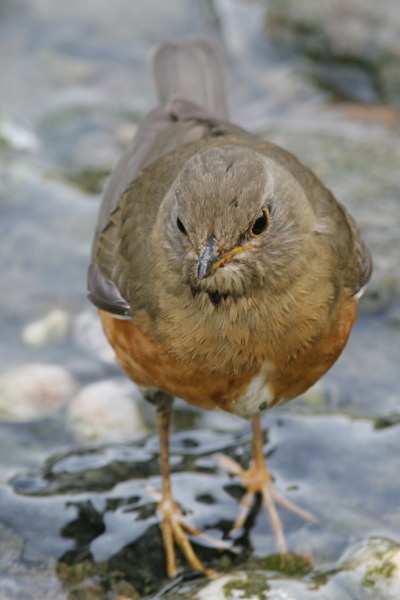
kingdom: Animalia
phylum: Chordata
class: Aves
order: Passeriformes
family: Turdidae
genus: Turdus
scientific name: Turdus chrysolaus
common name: Brown-headed thrush
